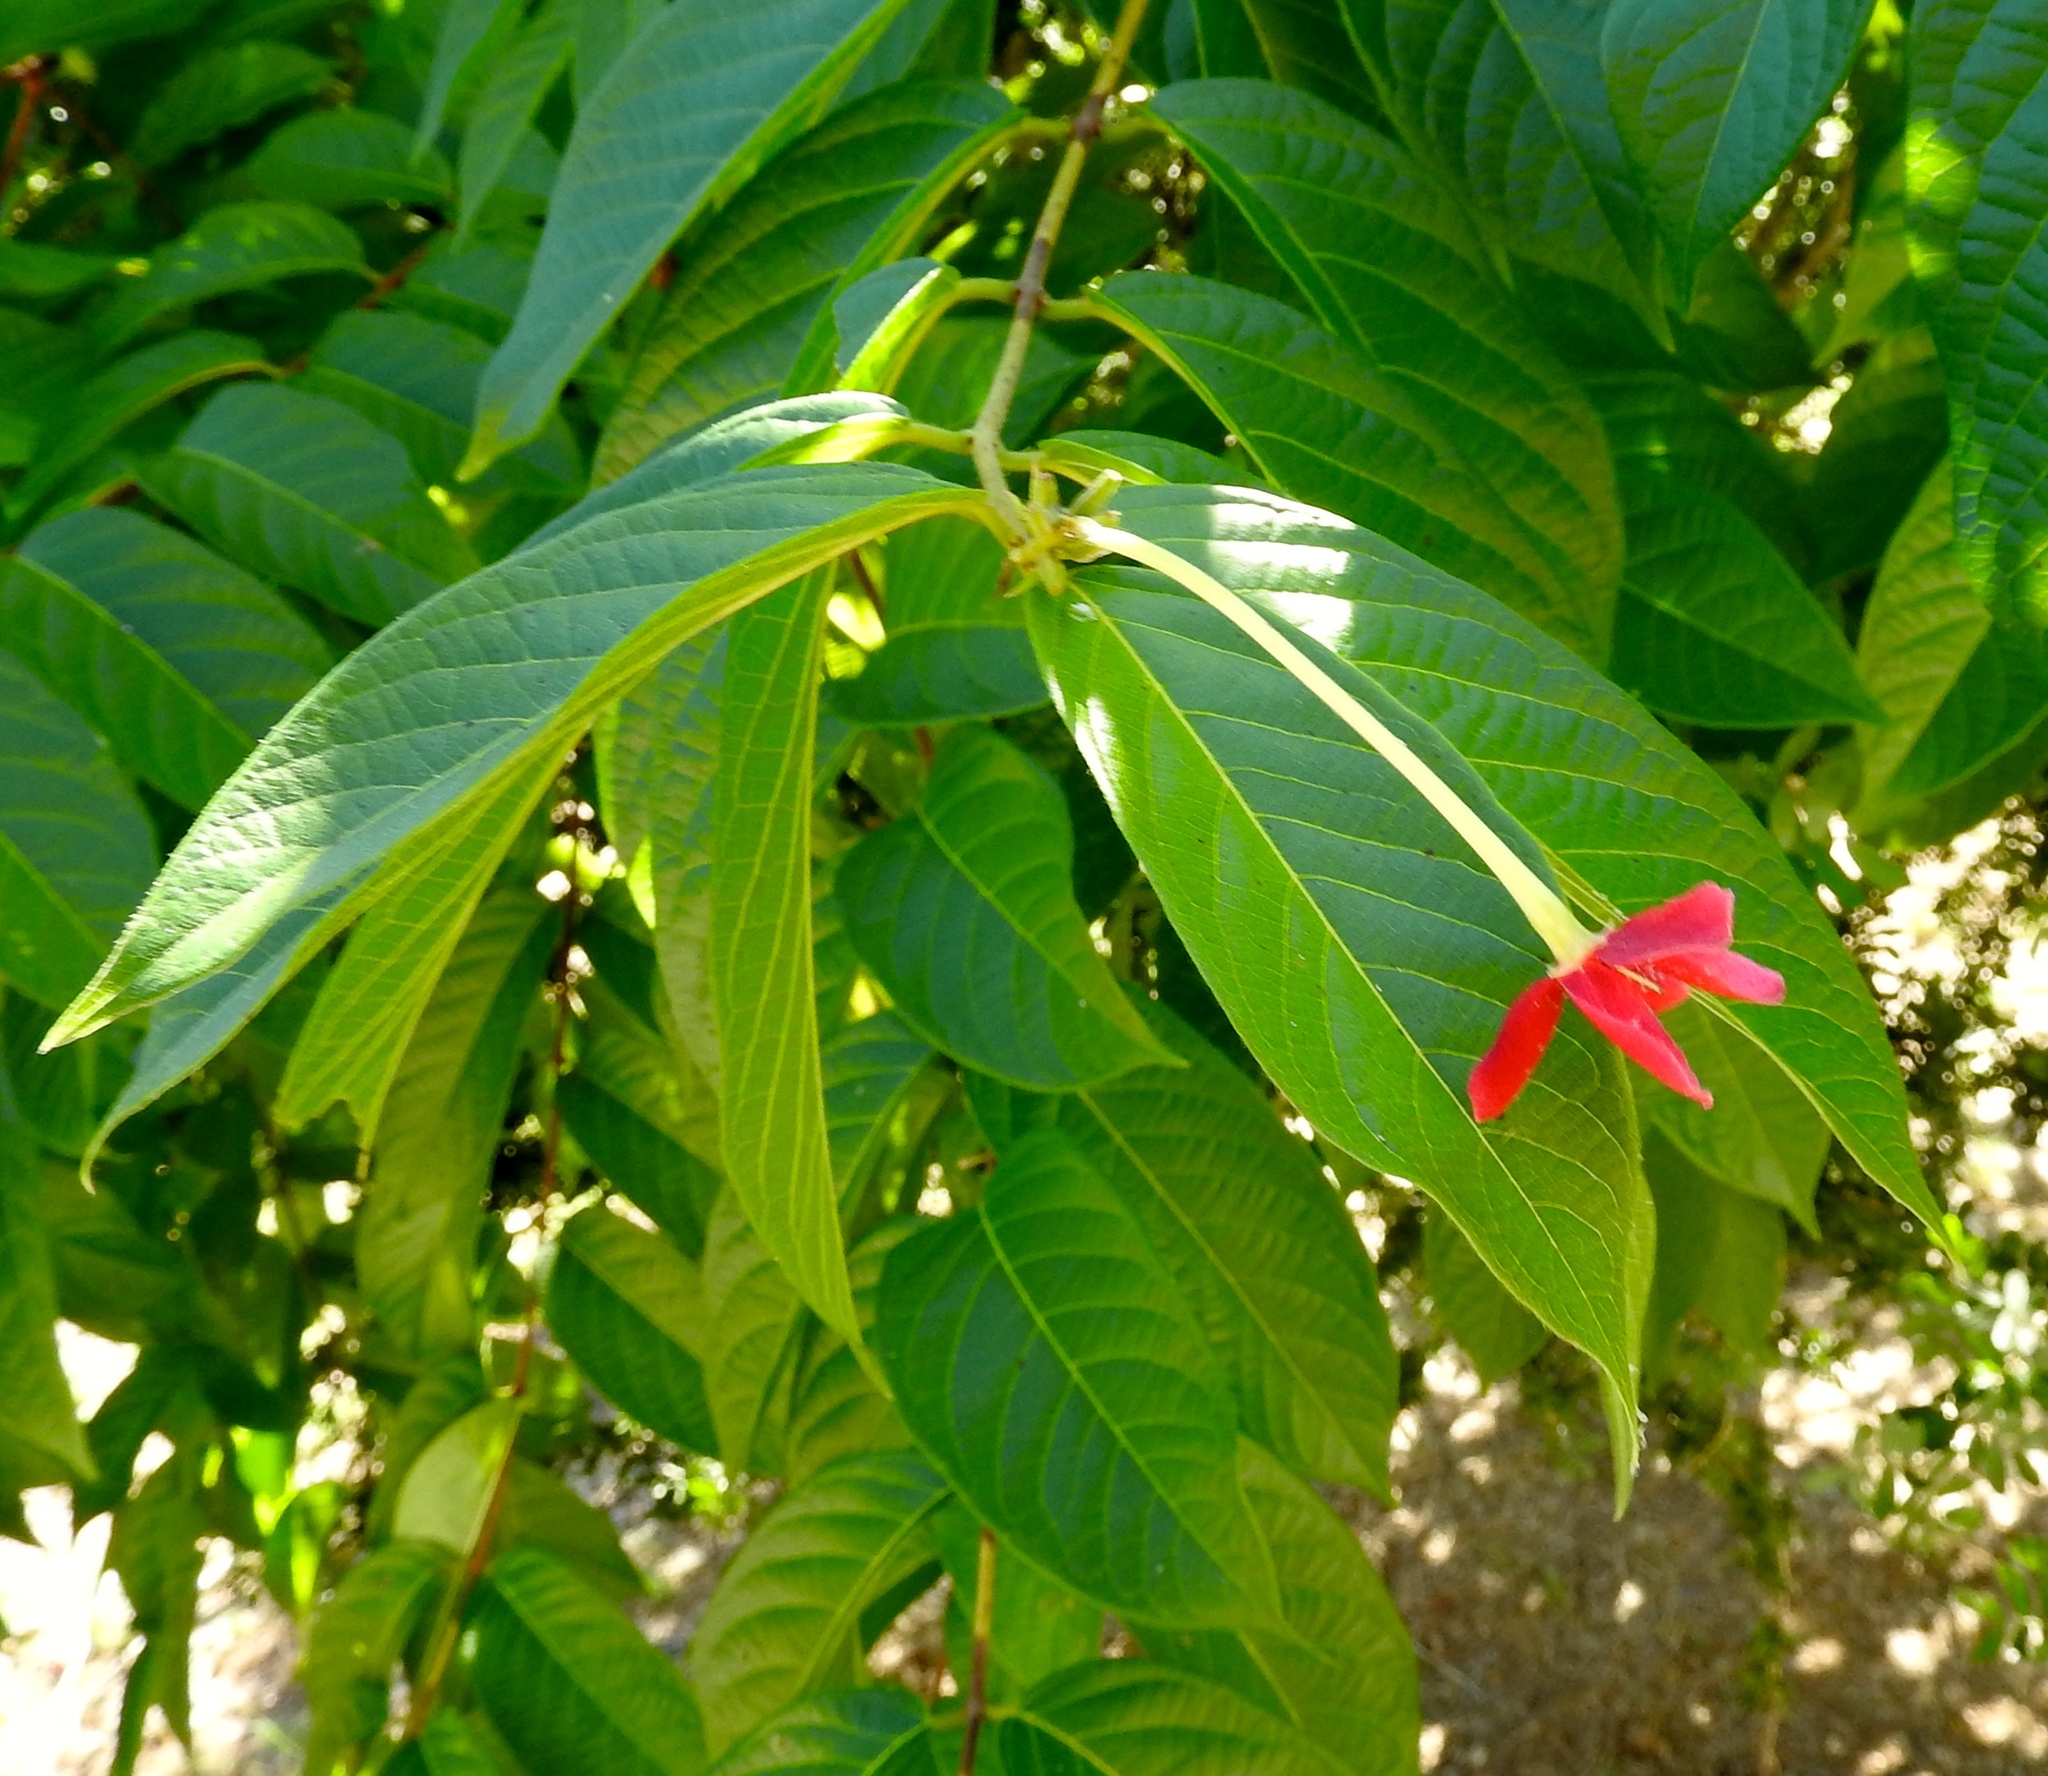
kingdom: Plantae
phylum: Tracheophyta
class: Magnoliopsida
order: Myrtales
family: Combretaceae
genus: Combretum
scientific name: Combretum indicum
